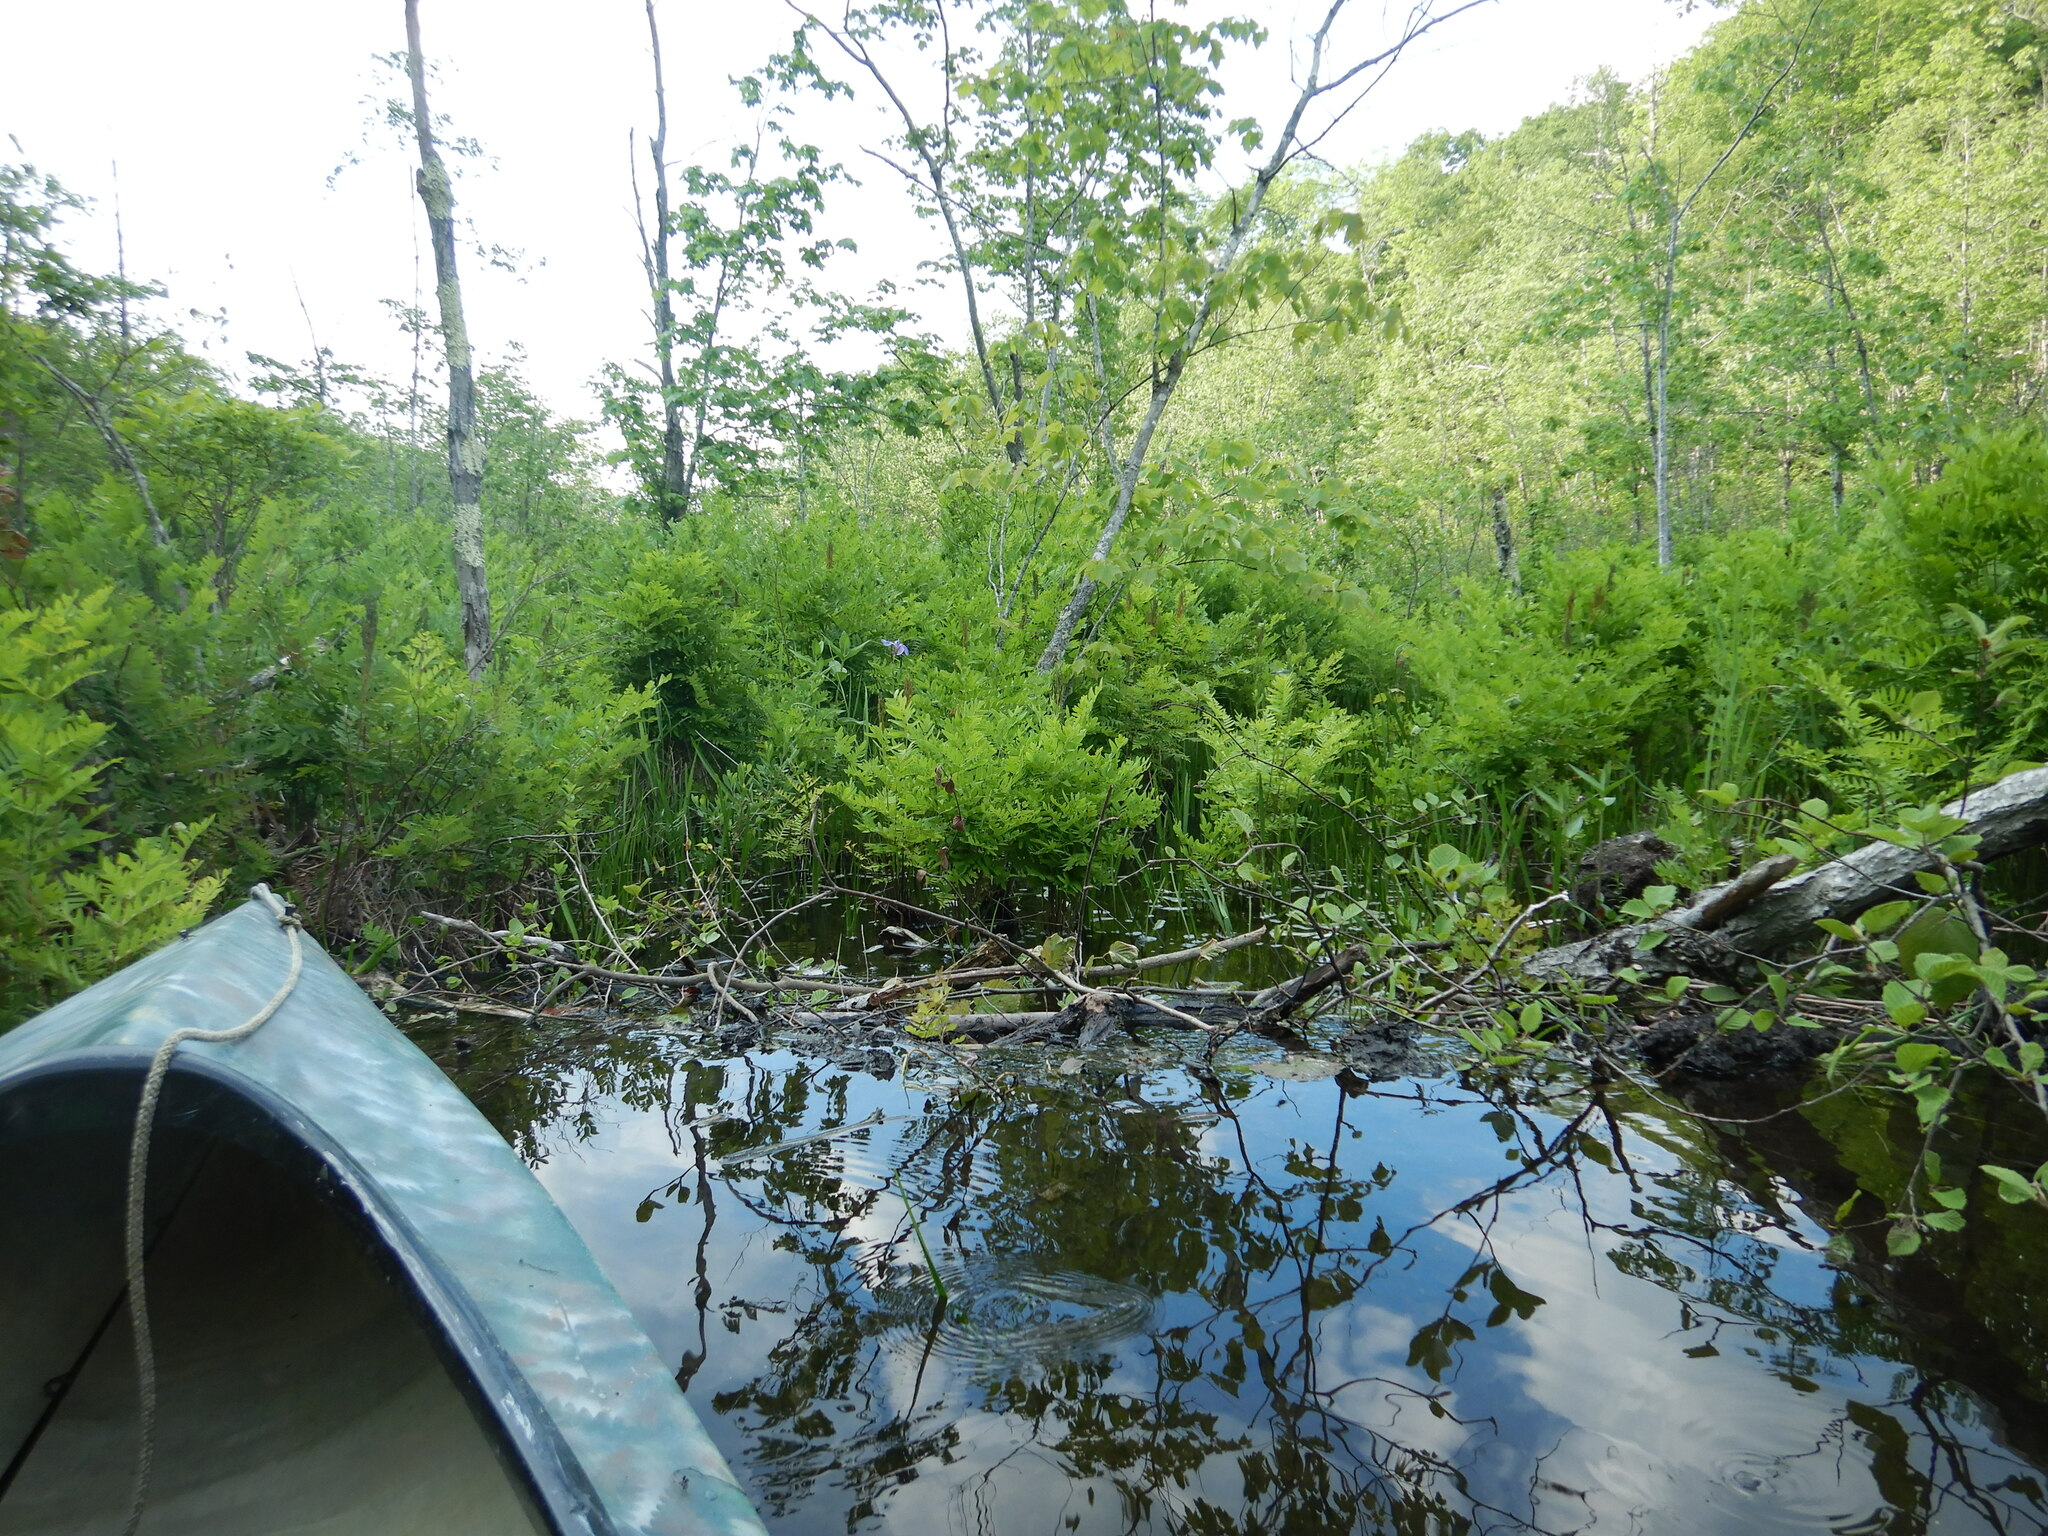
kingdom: Animalia
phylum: Chordata
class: Mammalia
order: Rodentia
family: Castoridae
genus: Castor
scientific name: Castor canadensis
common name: American beaver
